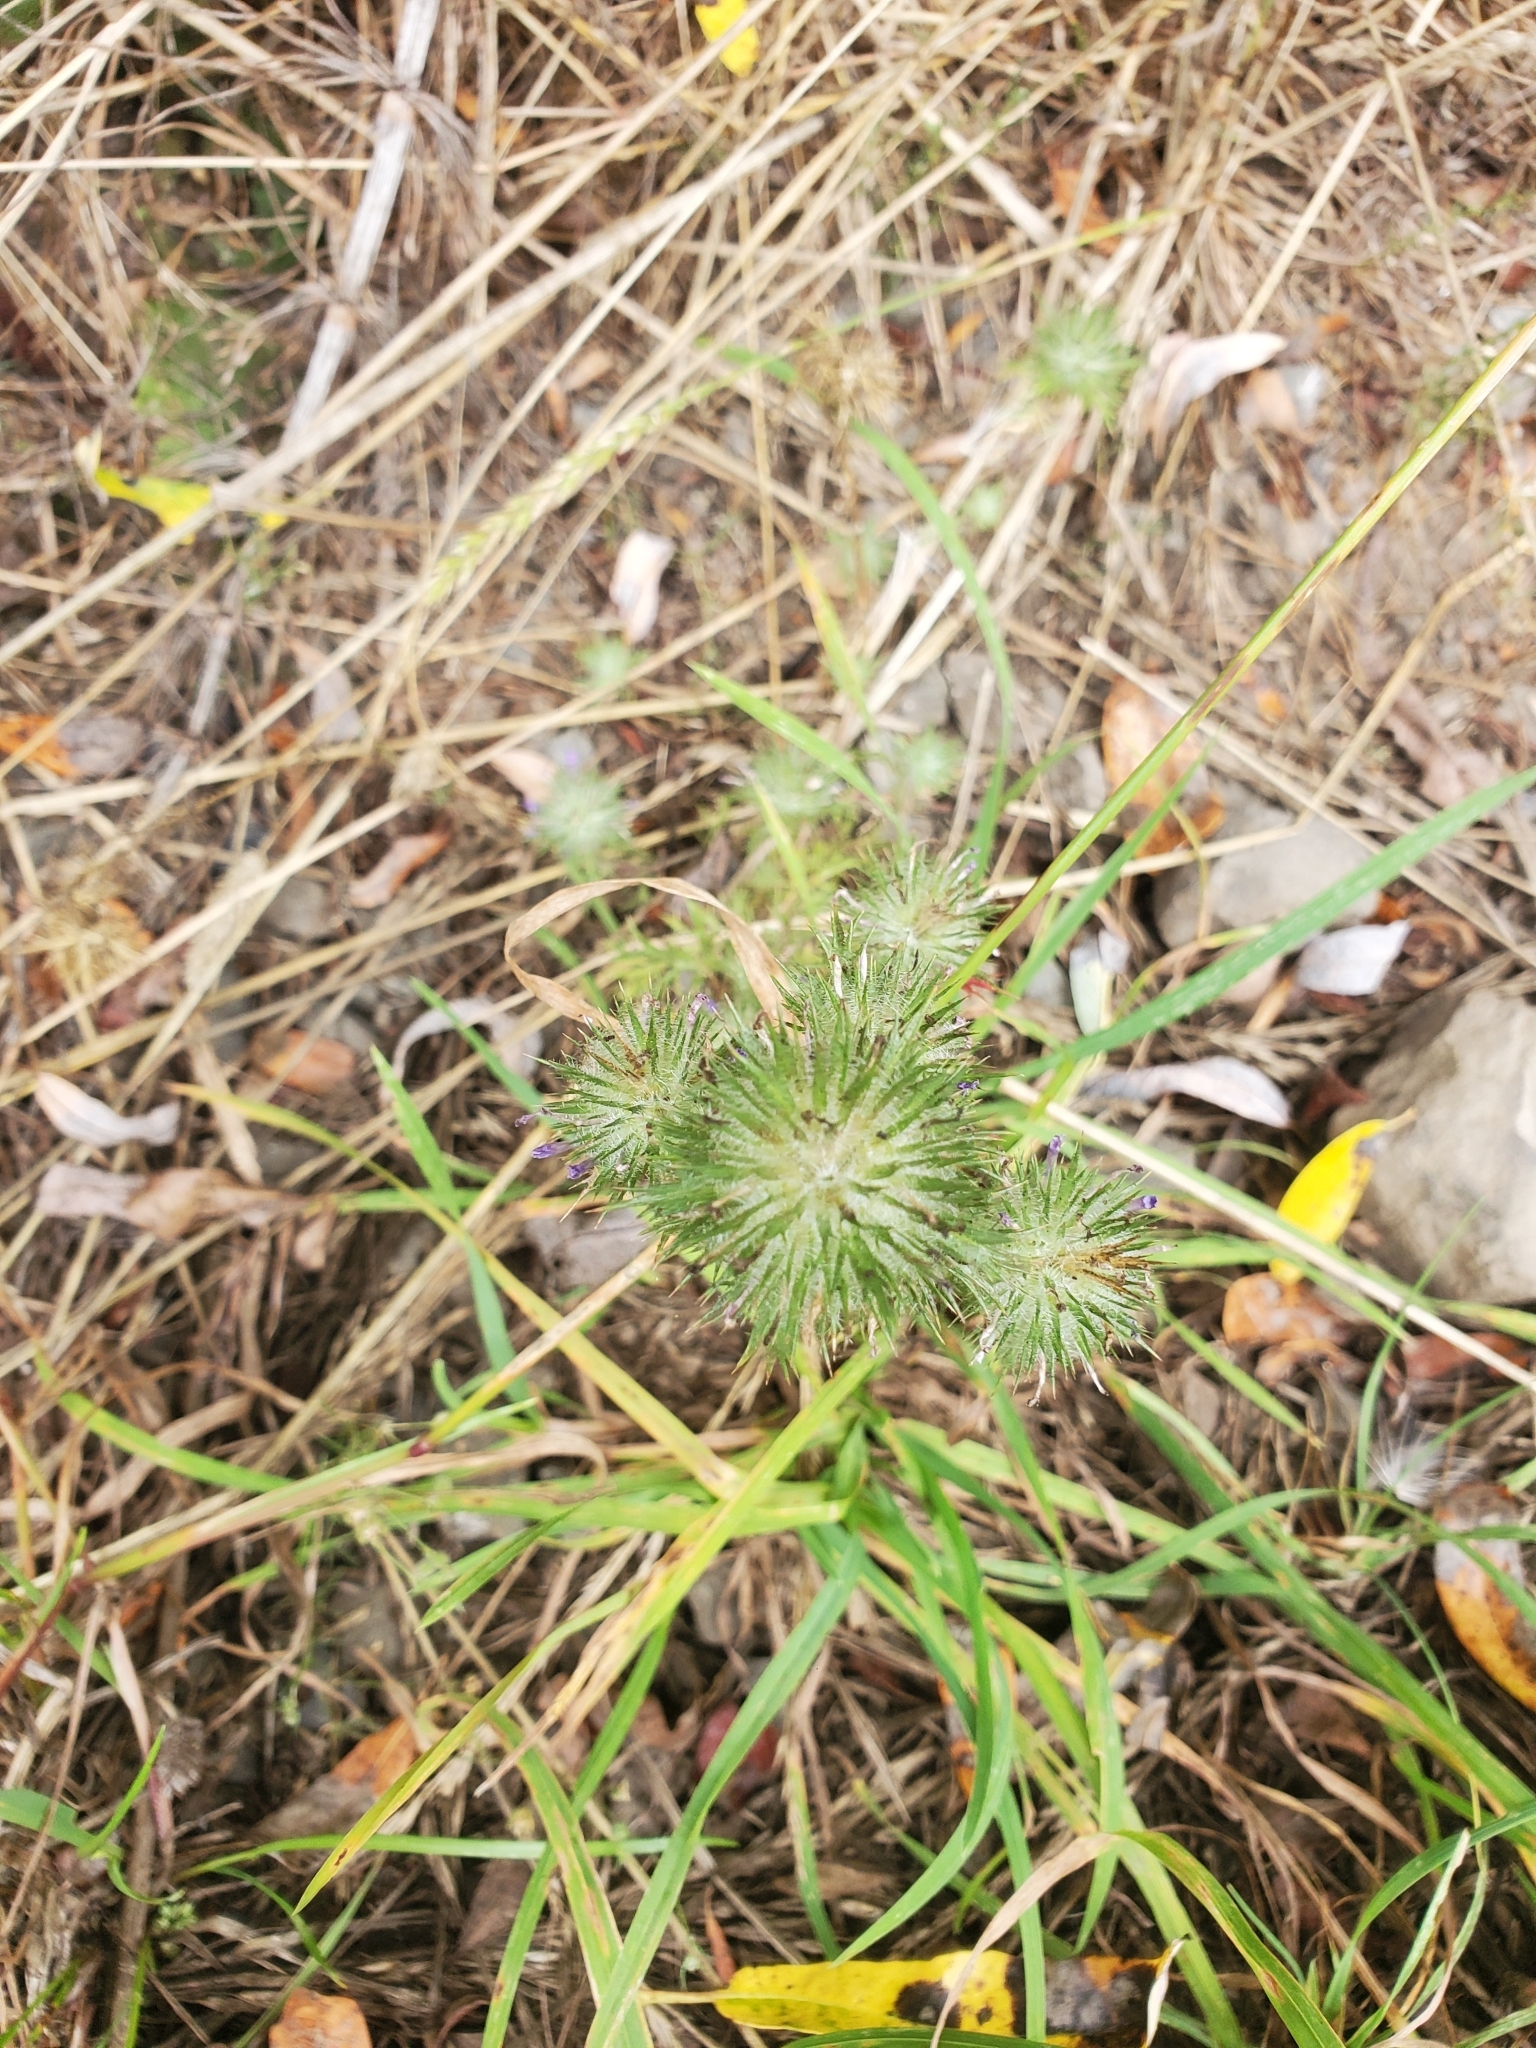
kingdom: Plantae
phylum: Tracheophyta
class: Magnoliopsida
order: Ericales
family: Polemoniaceae
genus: Navarretia
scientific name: Navarretia squarrosa
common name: Skunkweed
